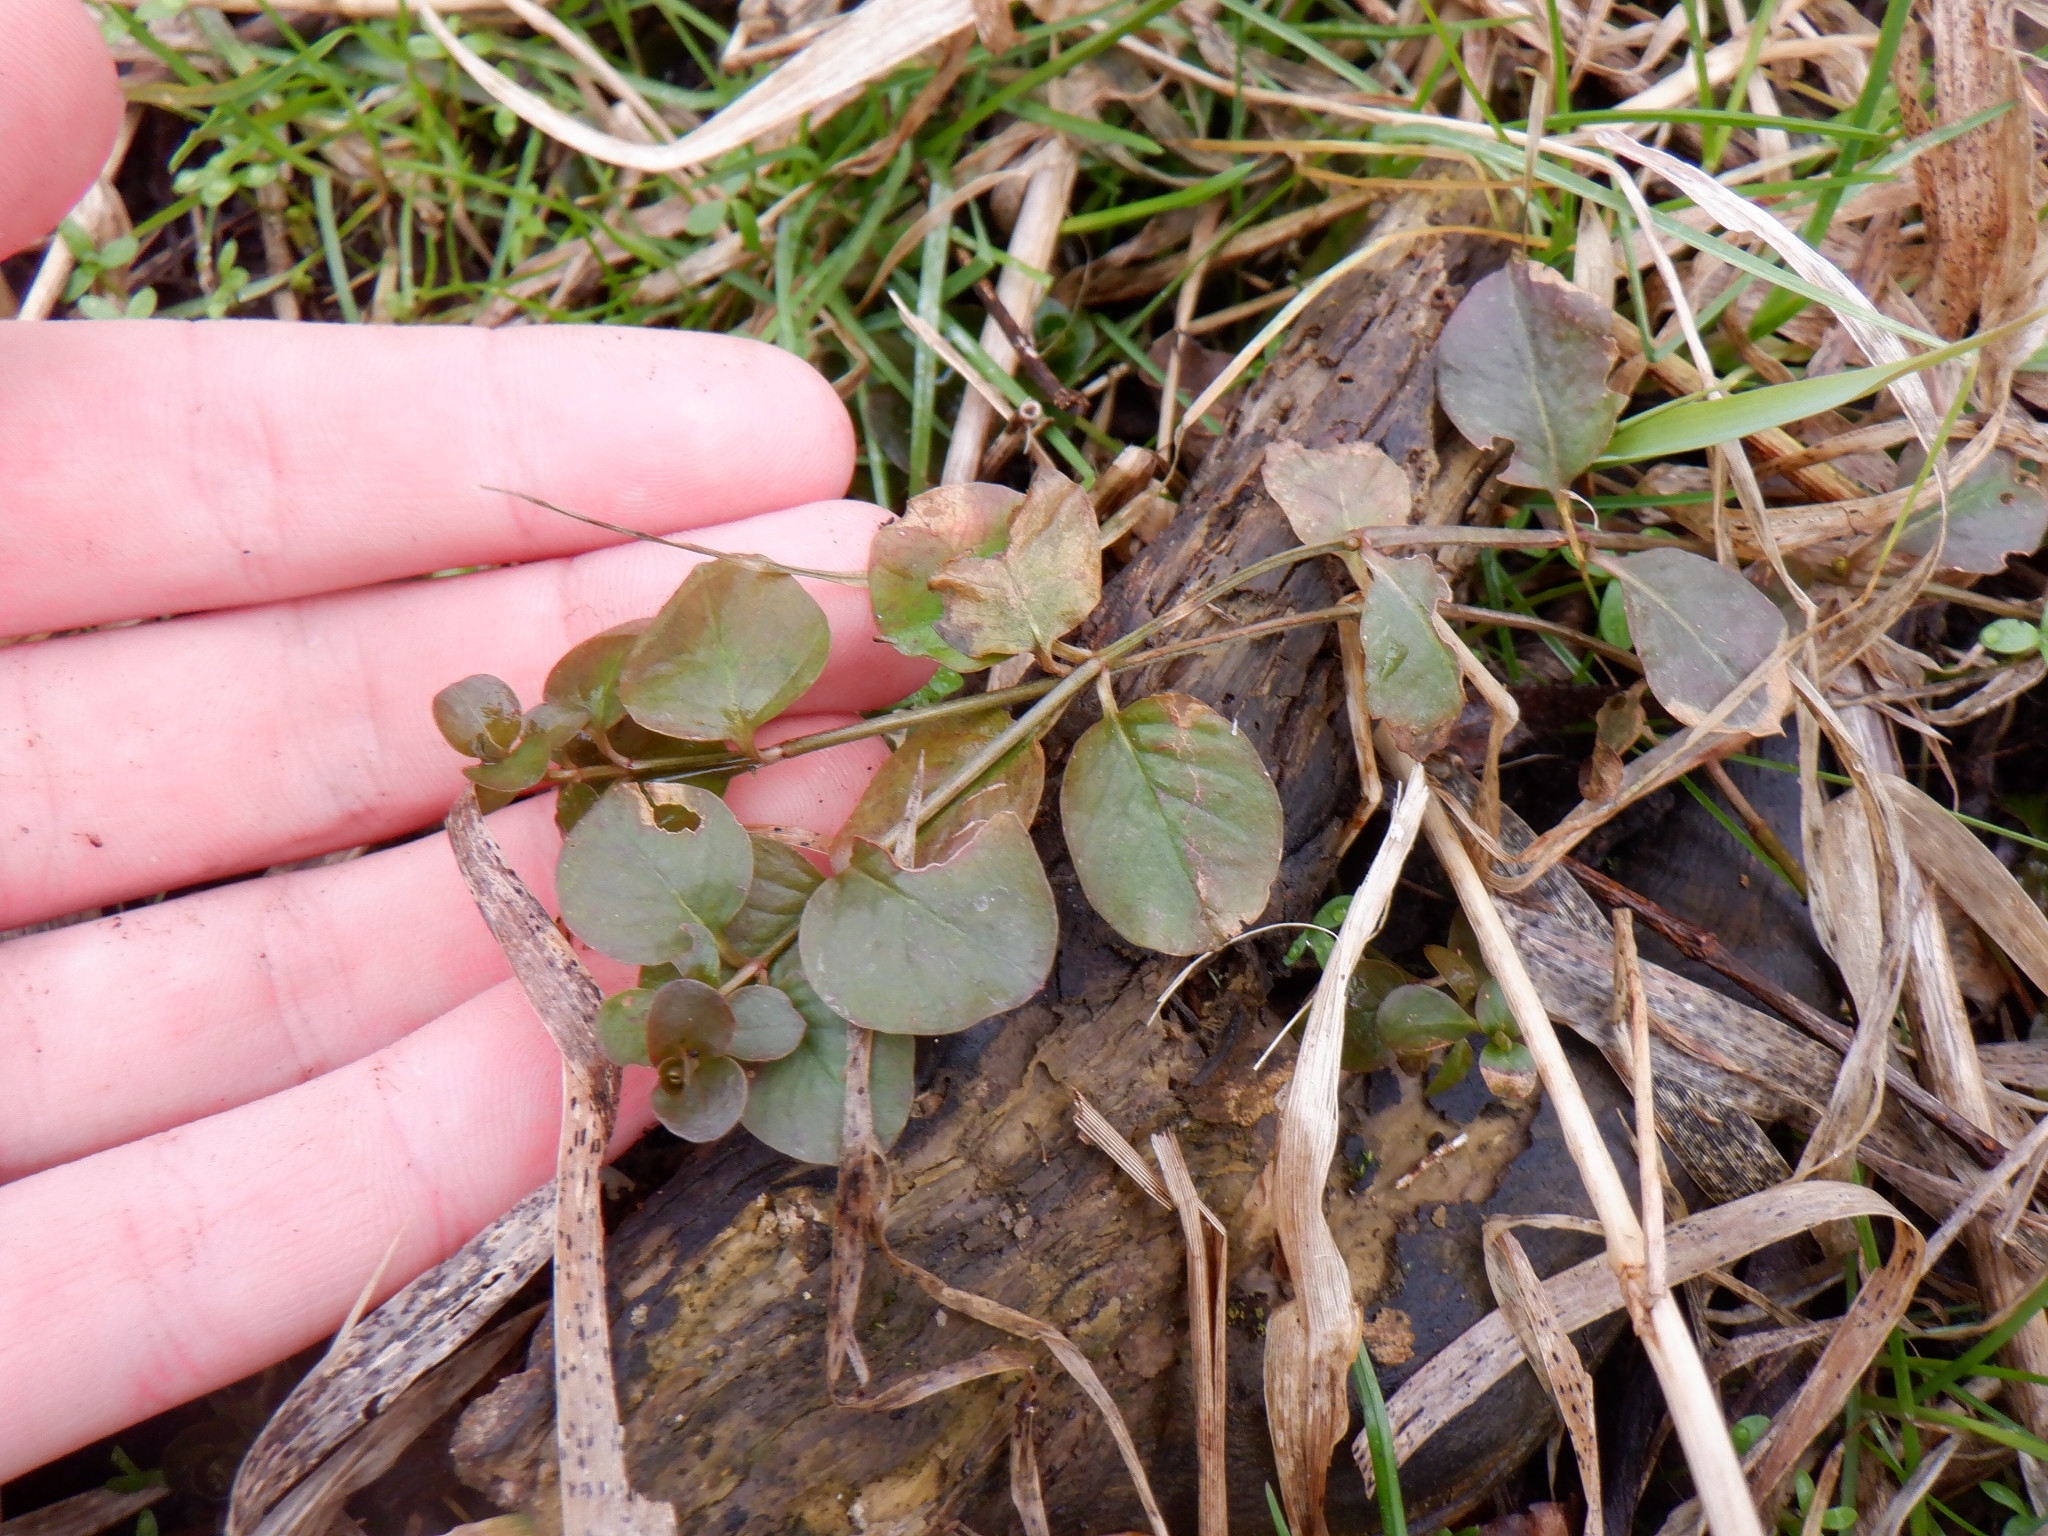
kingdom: Plantae
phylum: Tracheophyta
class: Magnoliopsida
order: Ericales
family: Primulaceae
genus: Lysimachia
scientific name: Lysimachia nummularia
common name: Moneywort
